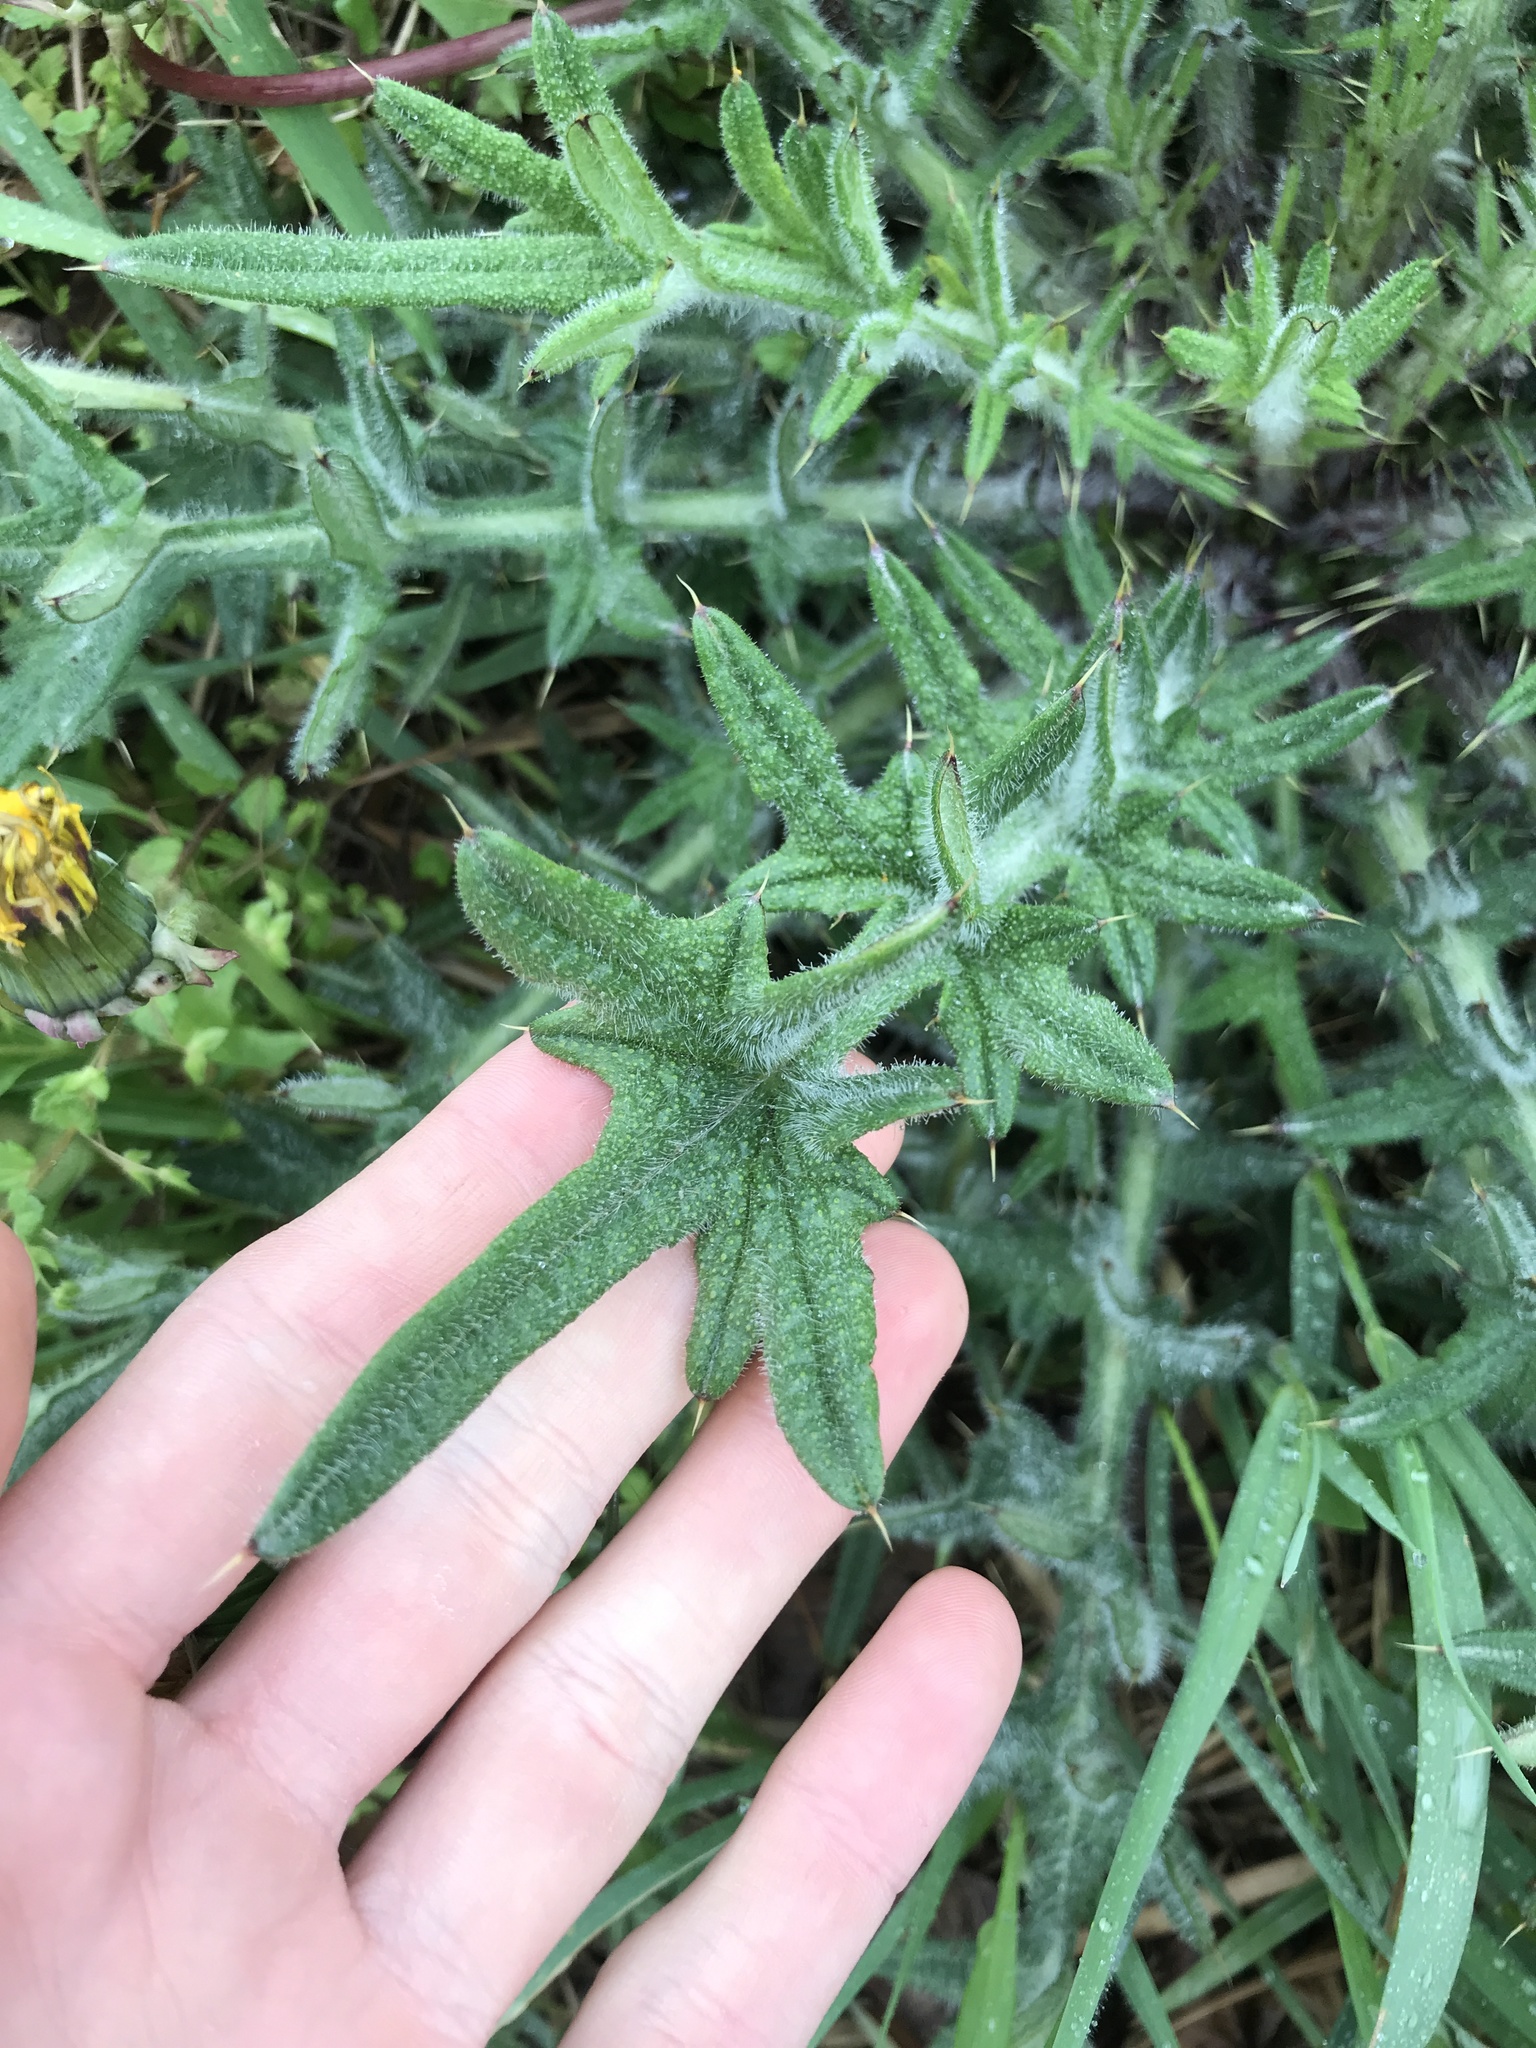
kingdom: Plantae
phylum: Tracheophyta
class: Magnoliopsida
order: Asterales
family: Asteraceae
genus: Cirsium
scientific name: Cirsium vulgare
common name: Bull thistle
